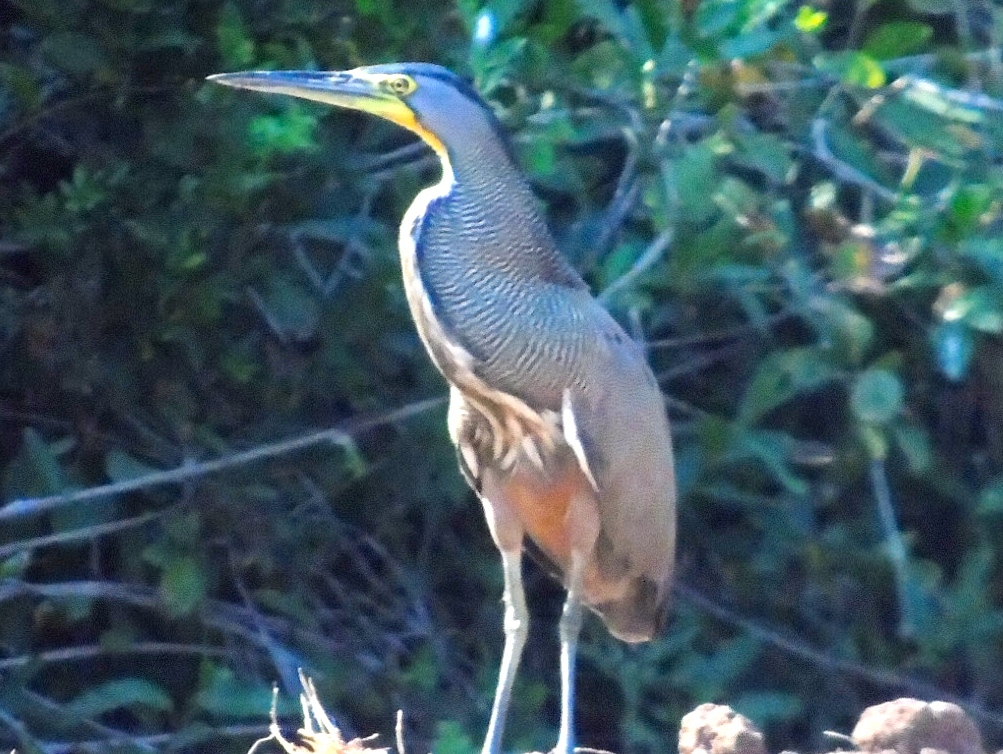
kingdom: Animalia
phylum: Chordata
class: Aves
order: Pelecaniformes
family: Ardeidae
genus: Tigrisoma
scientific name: Tigrisoma mexicanum
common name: Bare-throated tiger-heron
